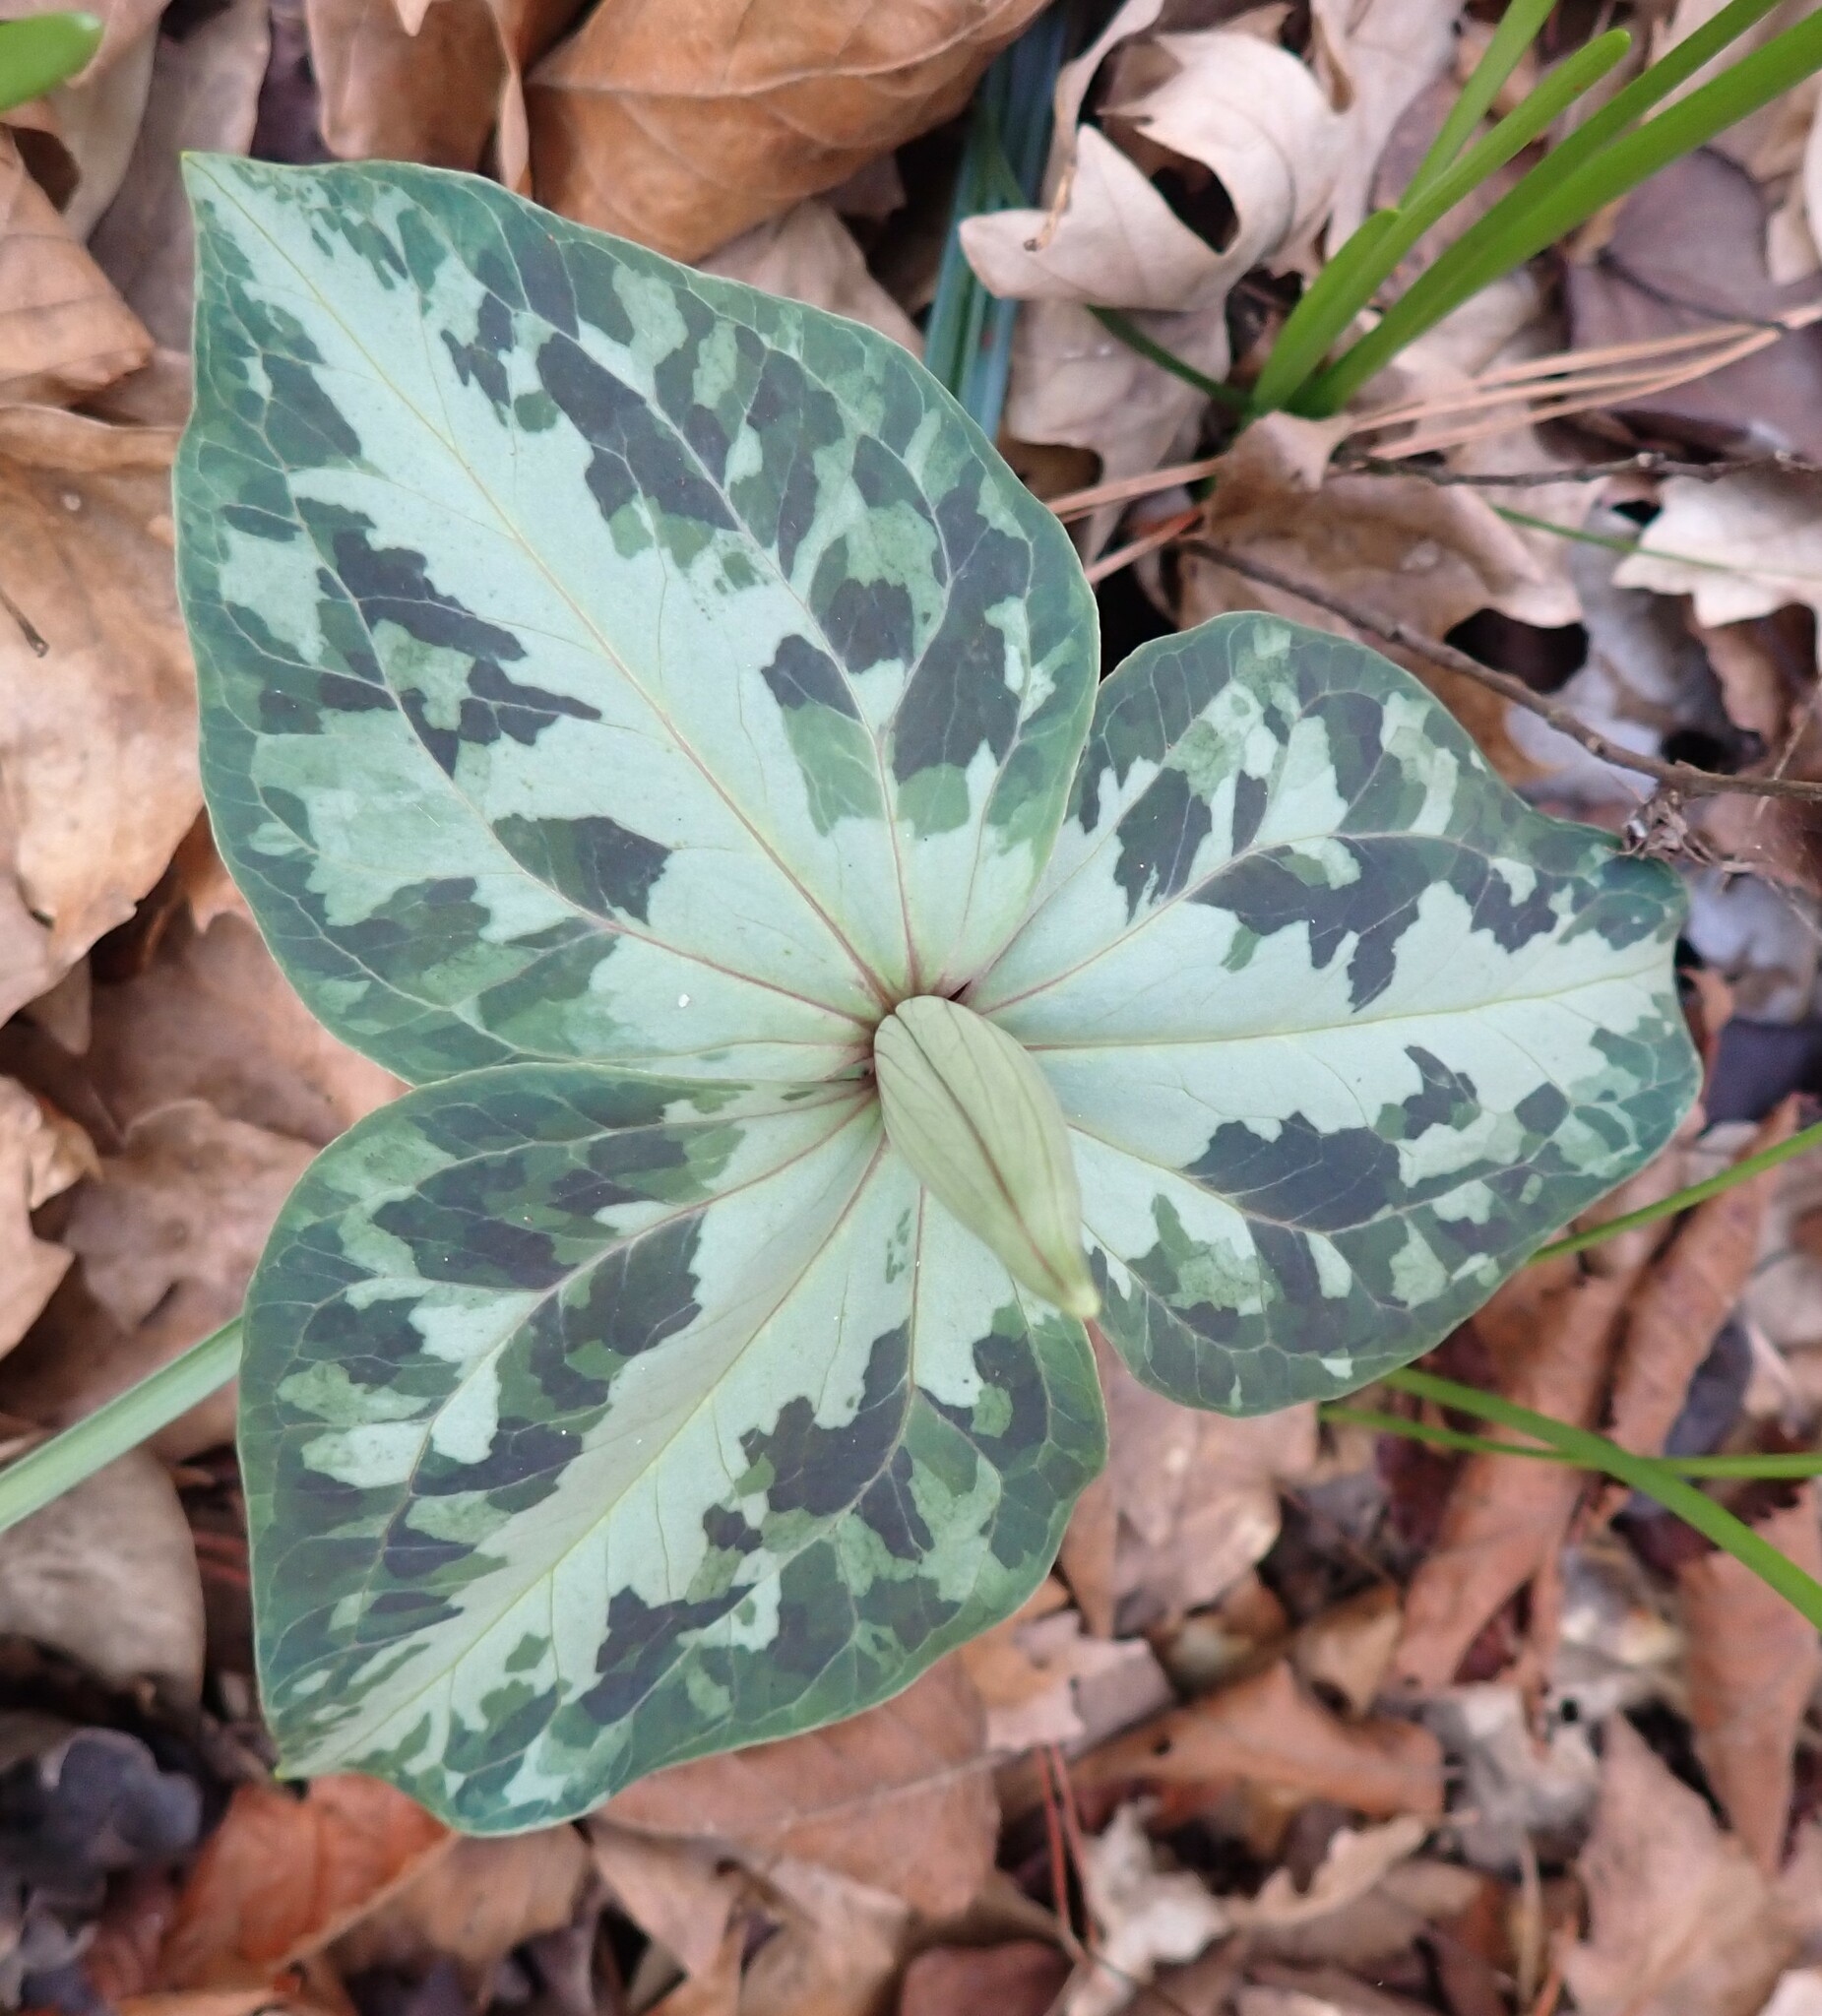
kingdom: Plantae
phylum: Tracheophyta
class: Liliopsida
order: Liliales
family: Melanthiaceae
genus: Trillium
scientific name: Trillium underwoodii
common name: Longbract wakerobin
